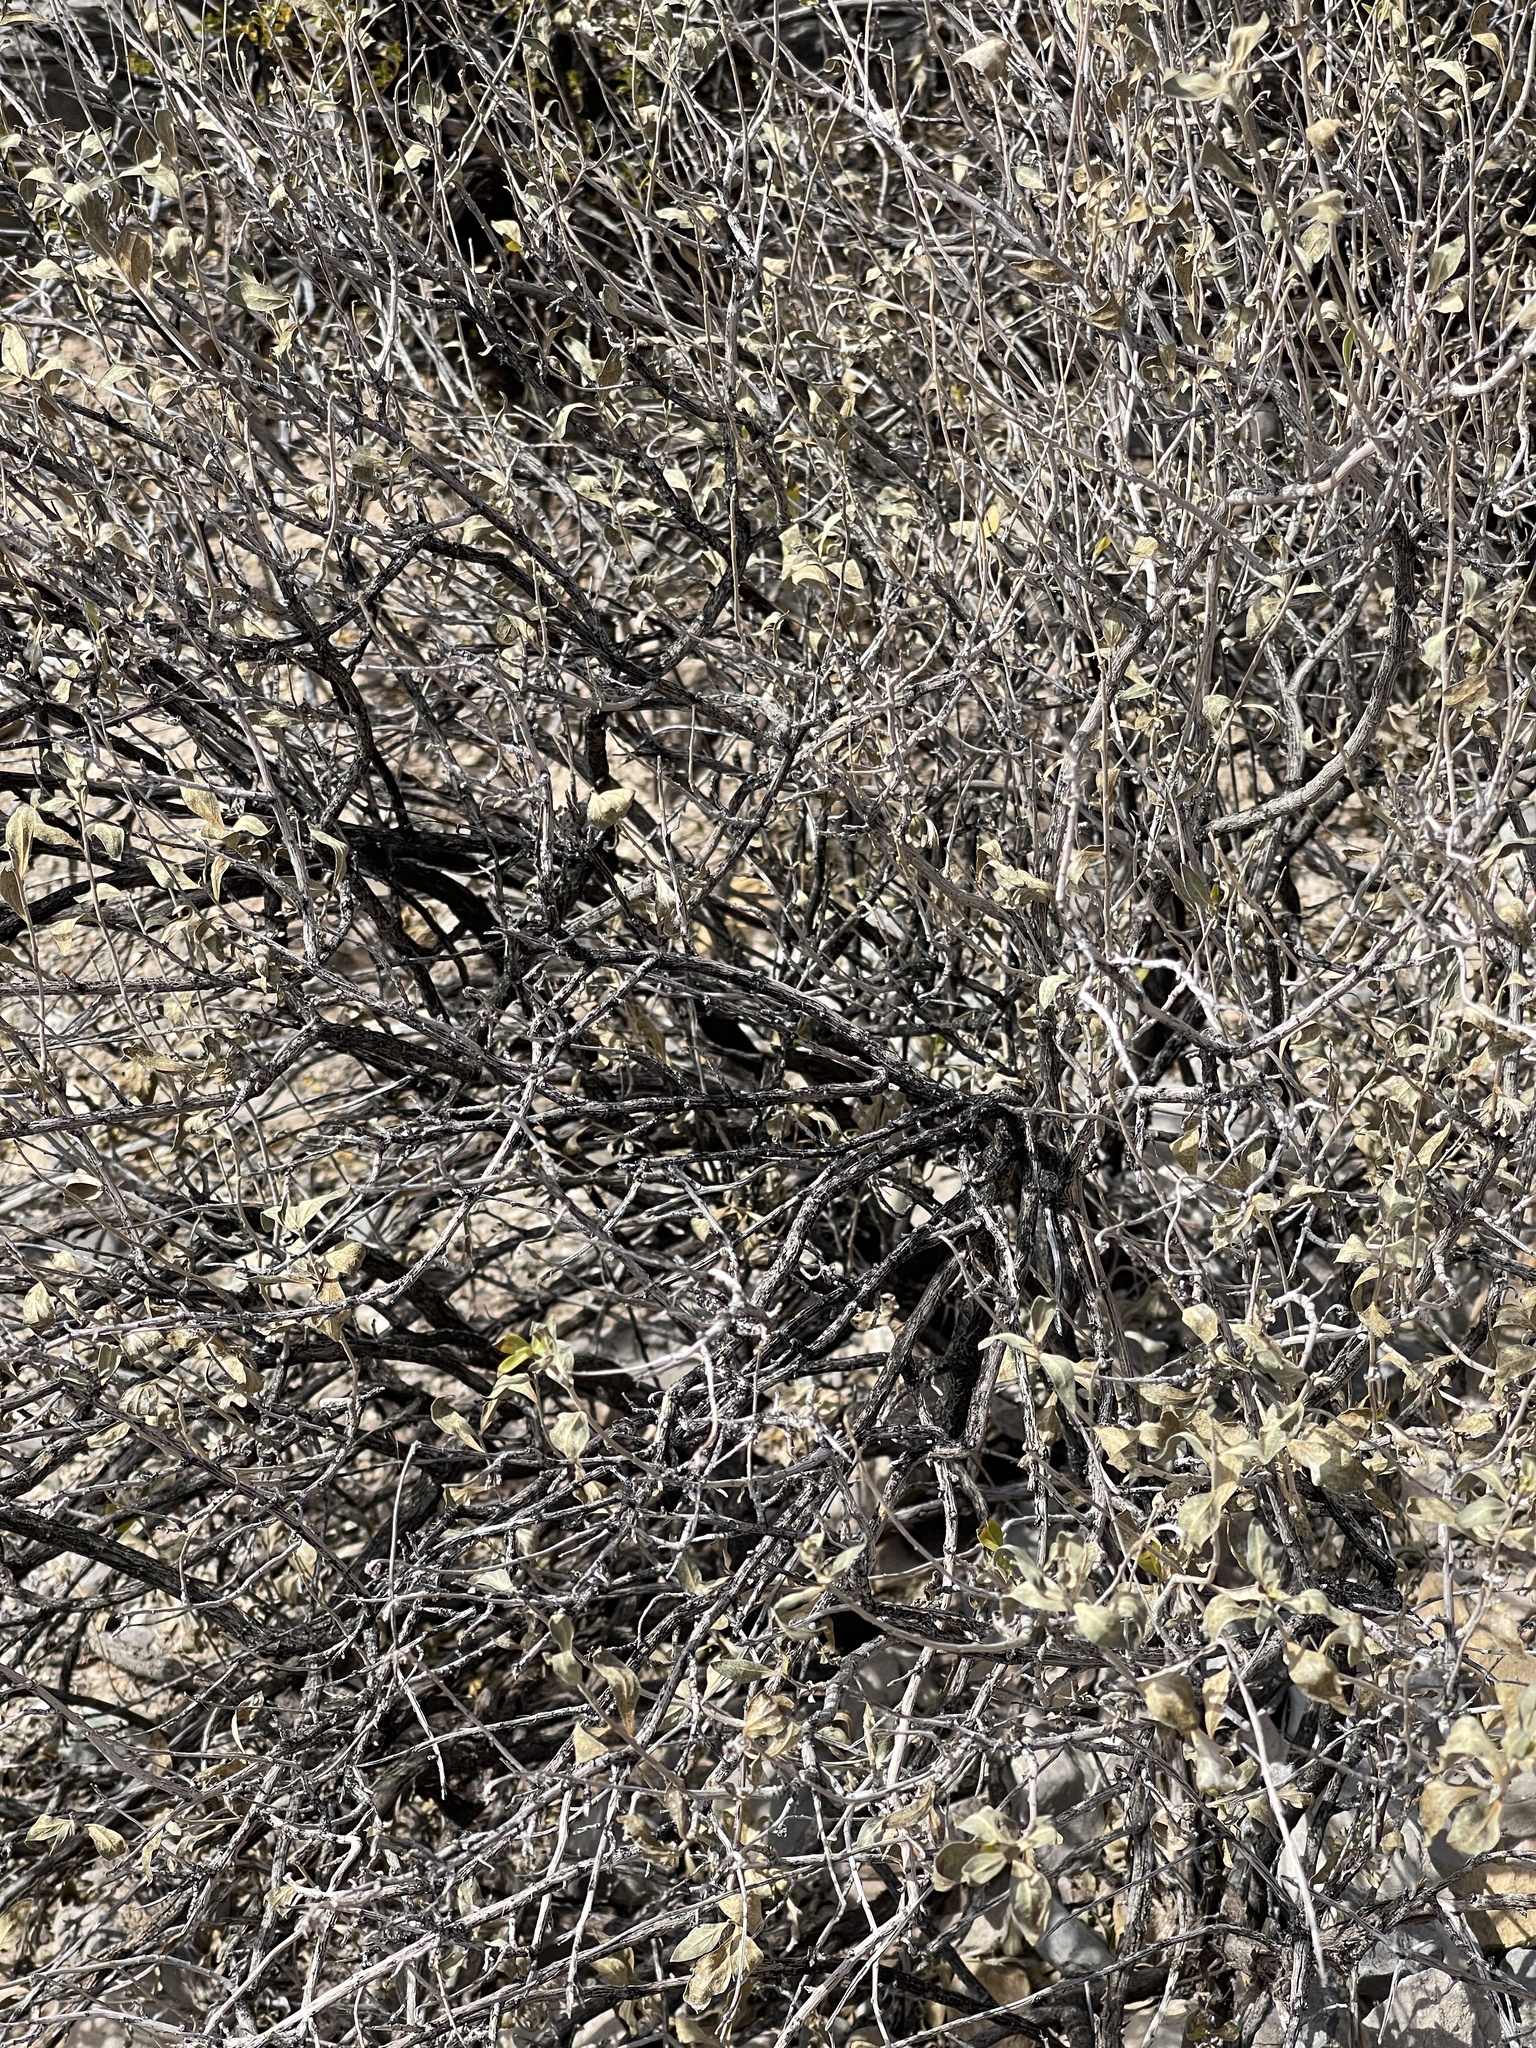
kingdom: Plantae
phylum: Tracheophyta
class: Magnoliopsida
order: Asterales
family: Asteraceae
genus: Flourensia
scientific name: Flourensia cernua
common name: Varnishbush
